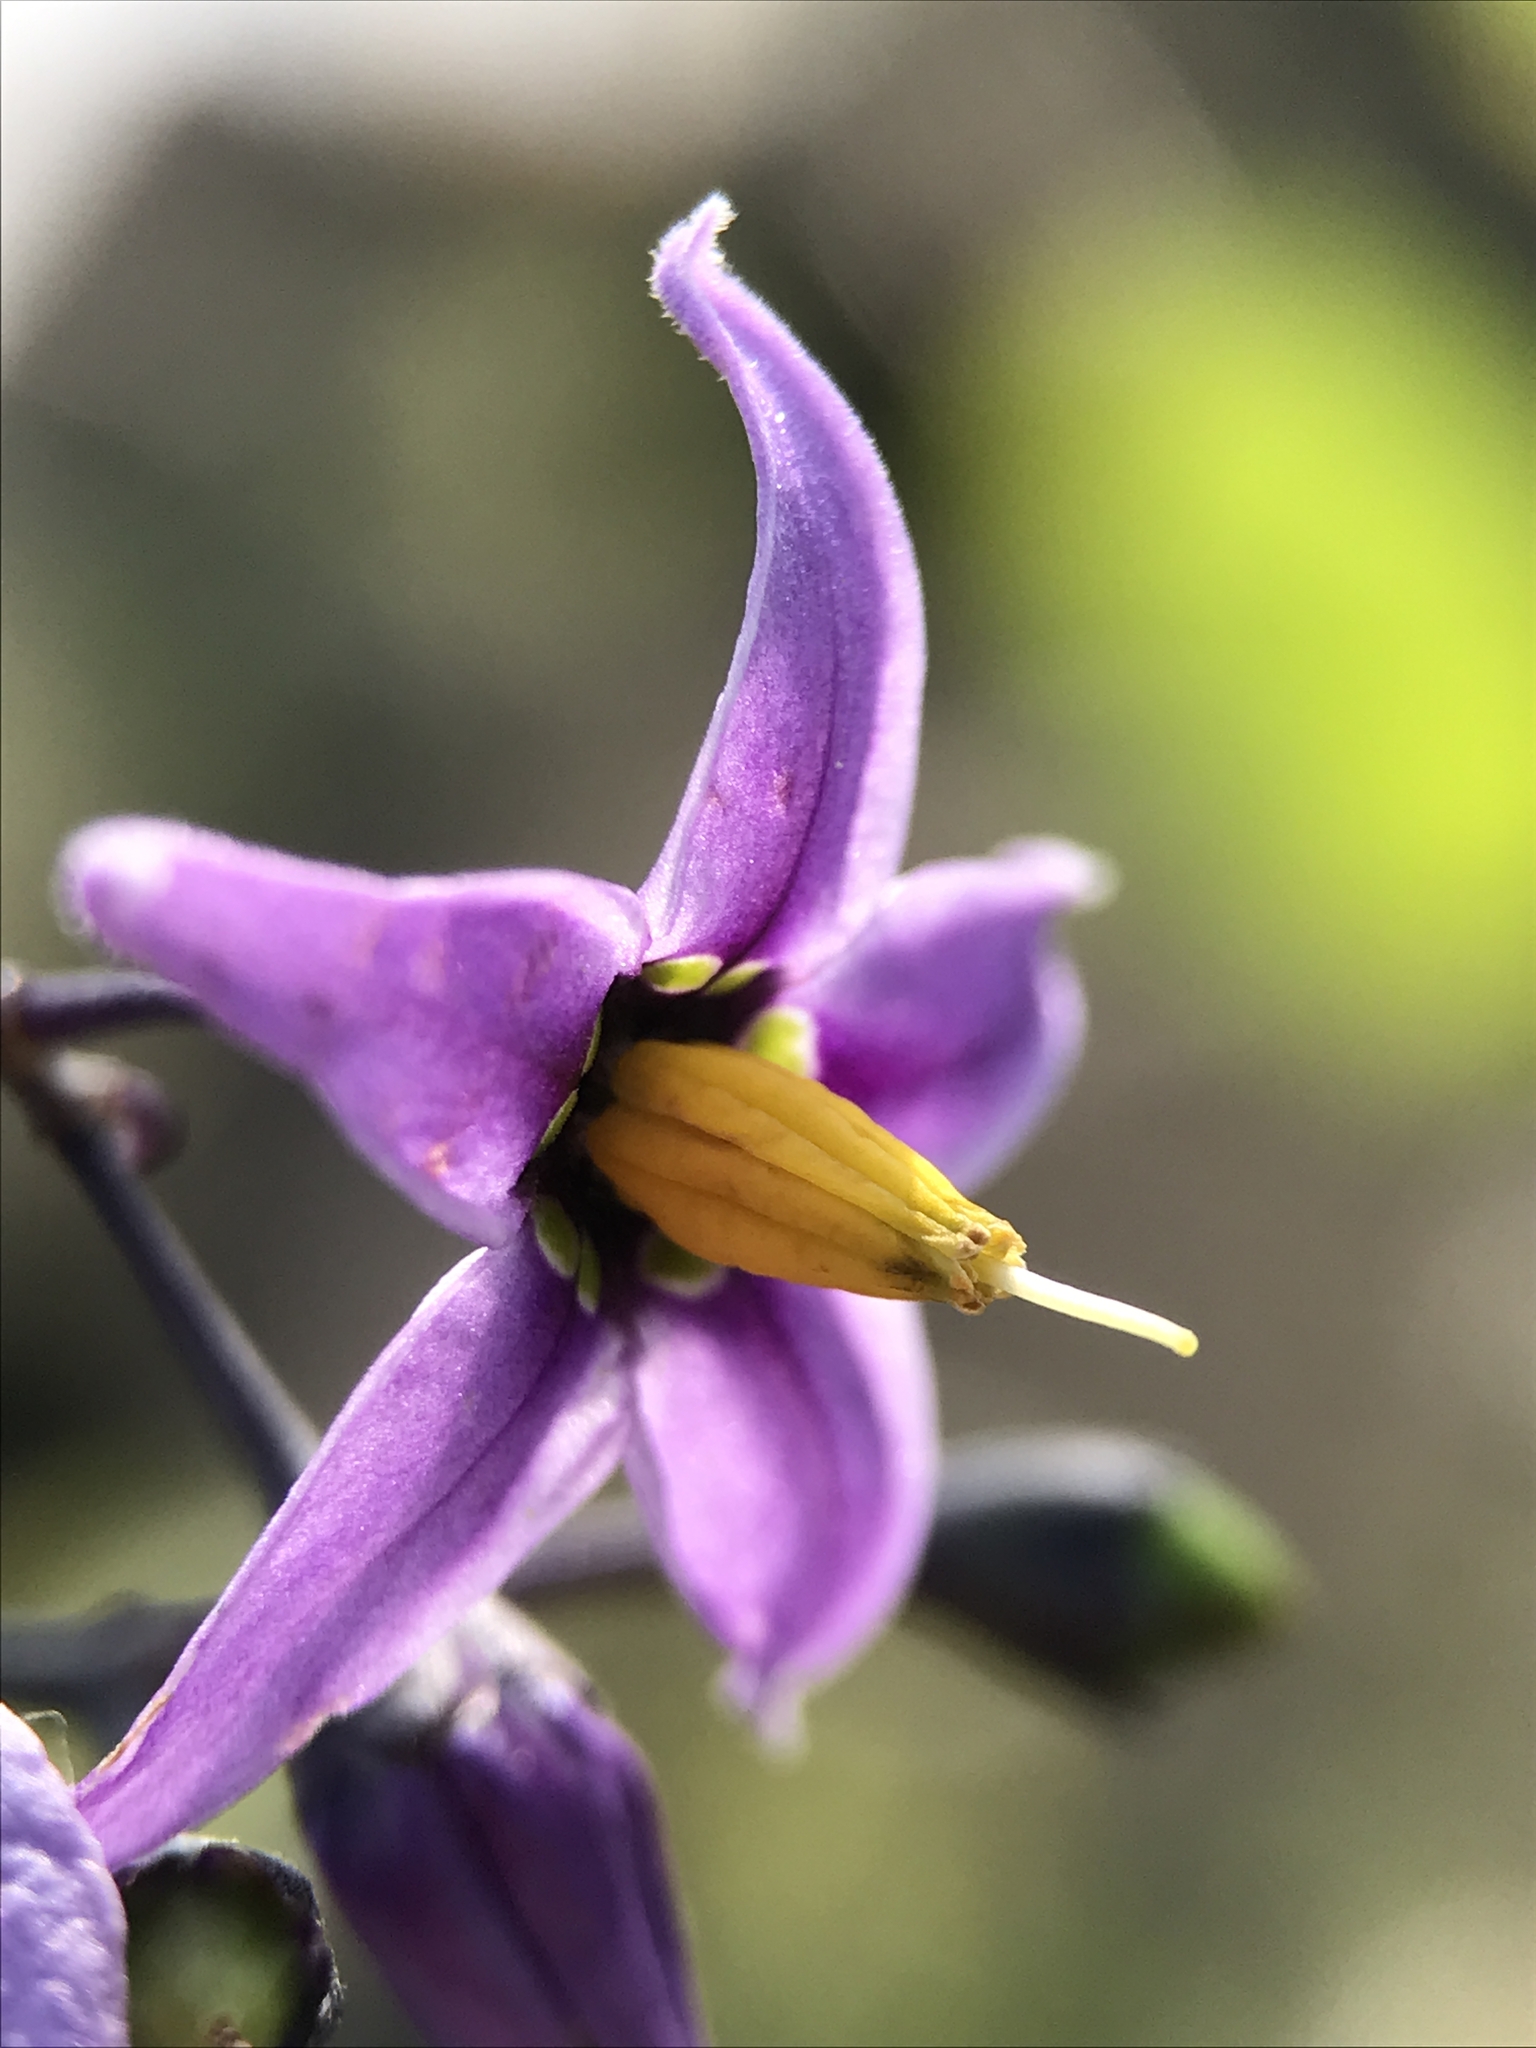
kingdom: Plantae
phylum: Tracheophyta
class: Magnoliopsida
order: Solanales
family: Solanaceae
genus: Solanum
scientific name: Solanum dulcamara
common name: Climbing nightshade
